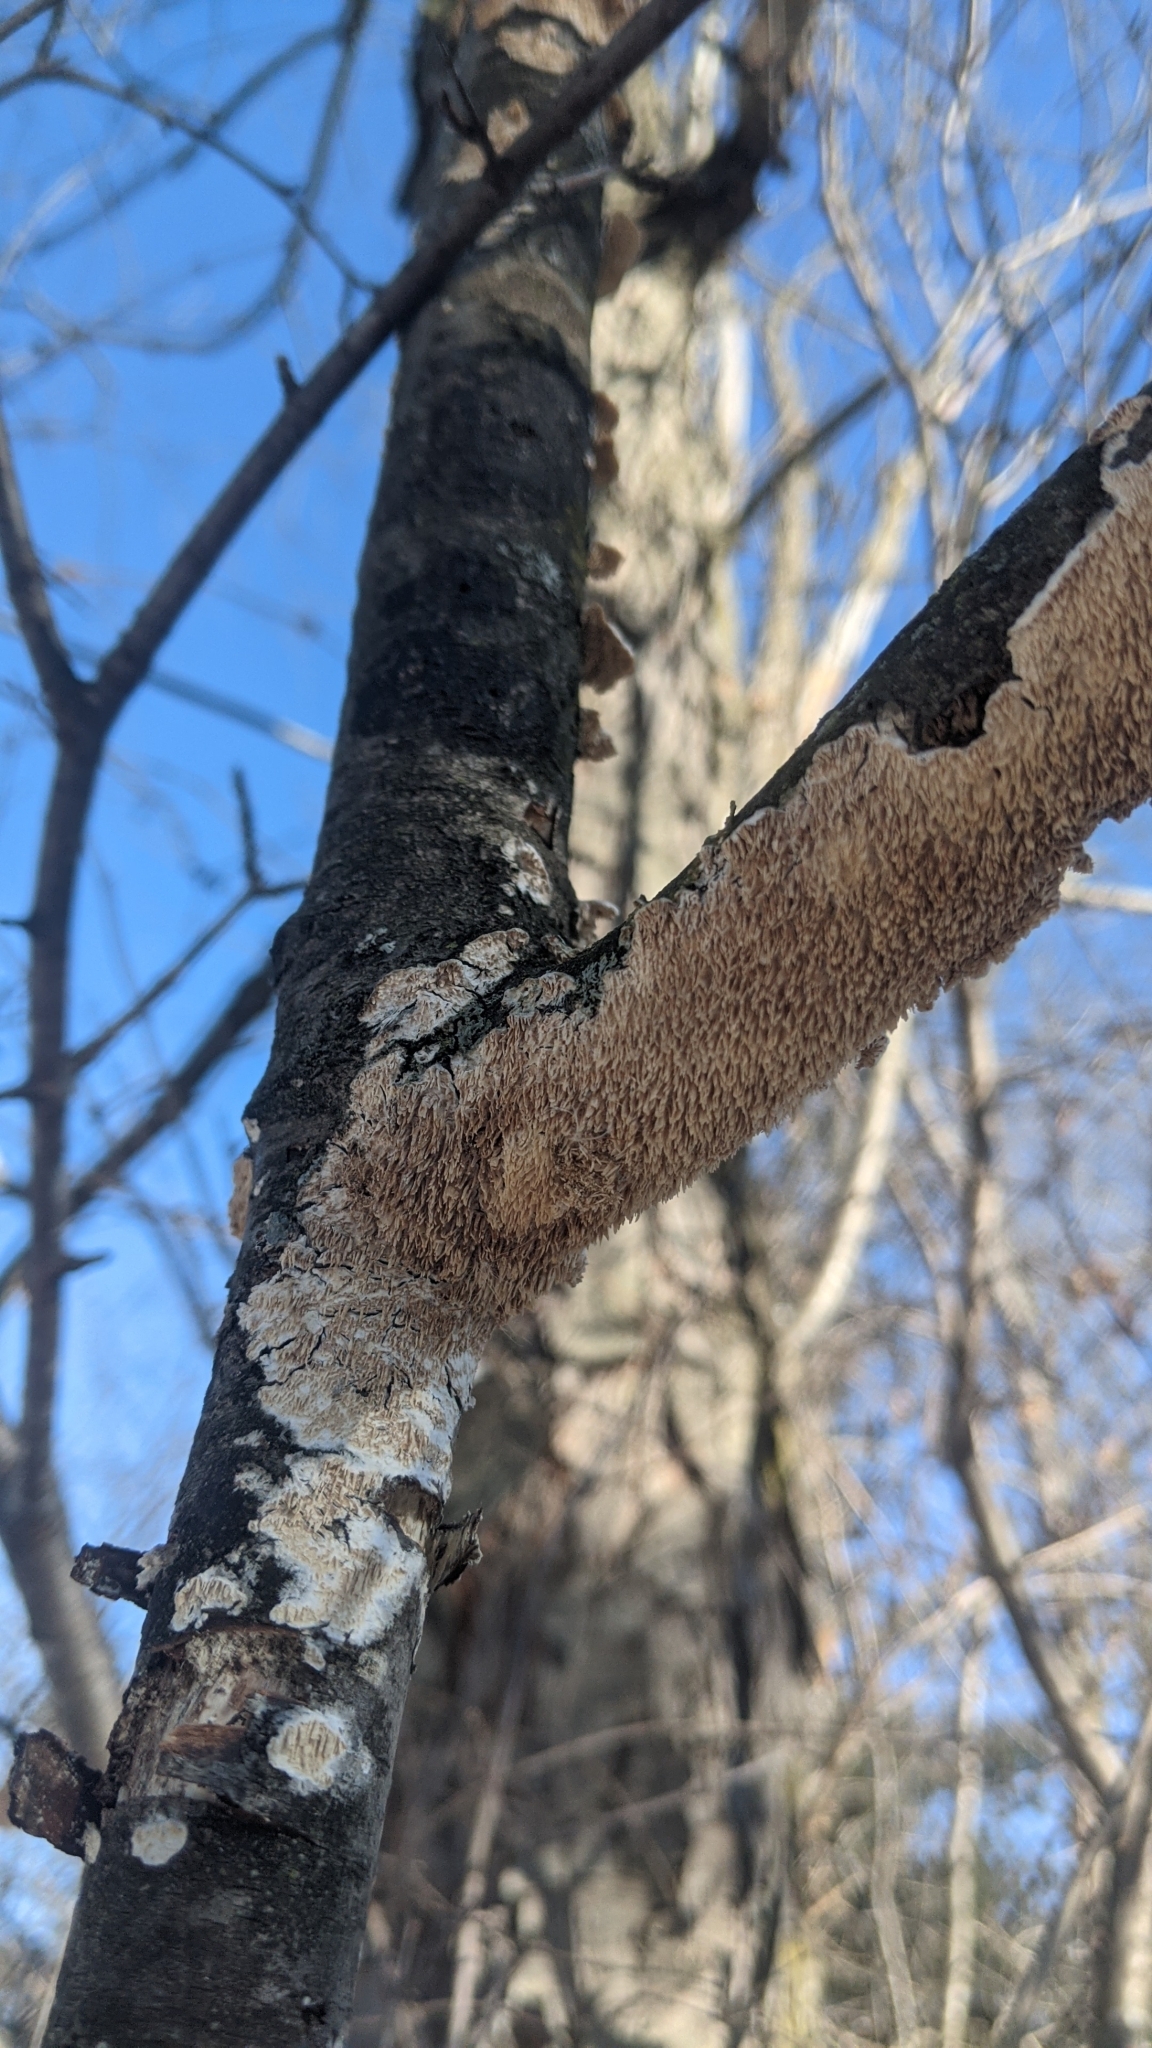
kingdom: Fungi
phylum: Basidiomycota
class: Agaricomycetes
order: Polyporales
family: Irpicaceae
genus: Irpex
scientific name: Irpex lacteus
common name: Milk-white toothed polypore
